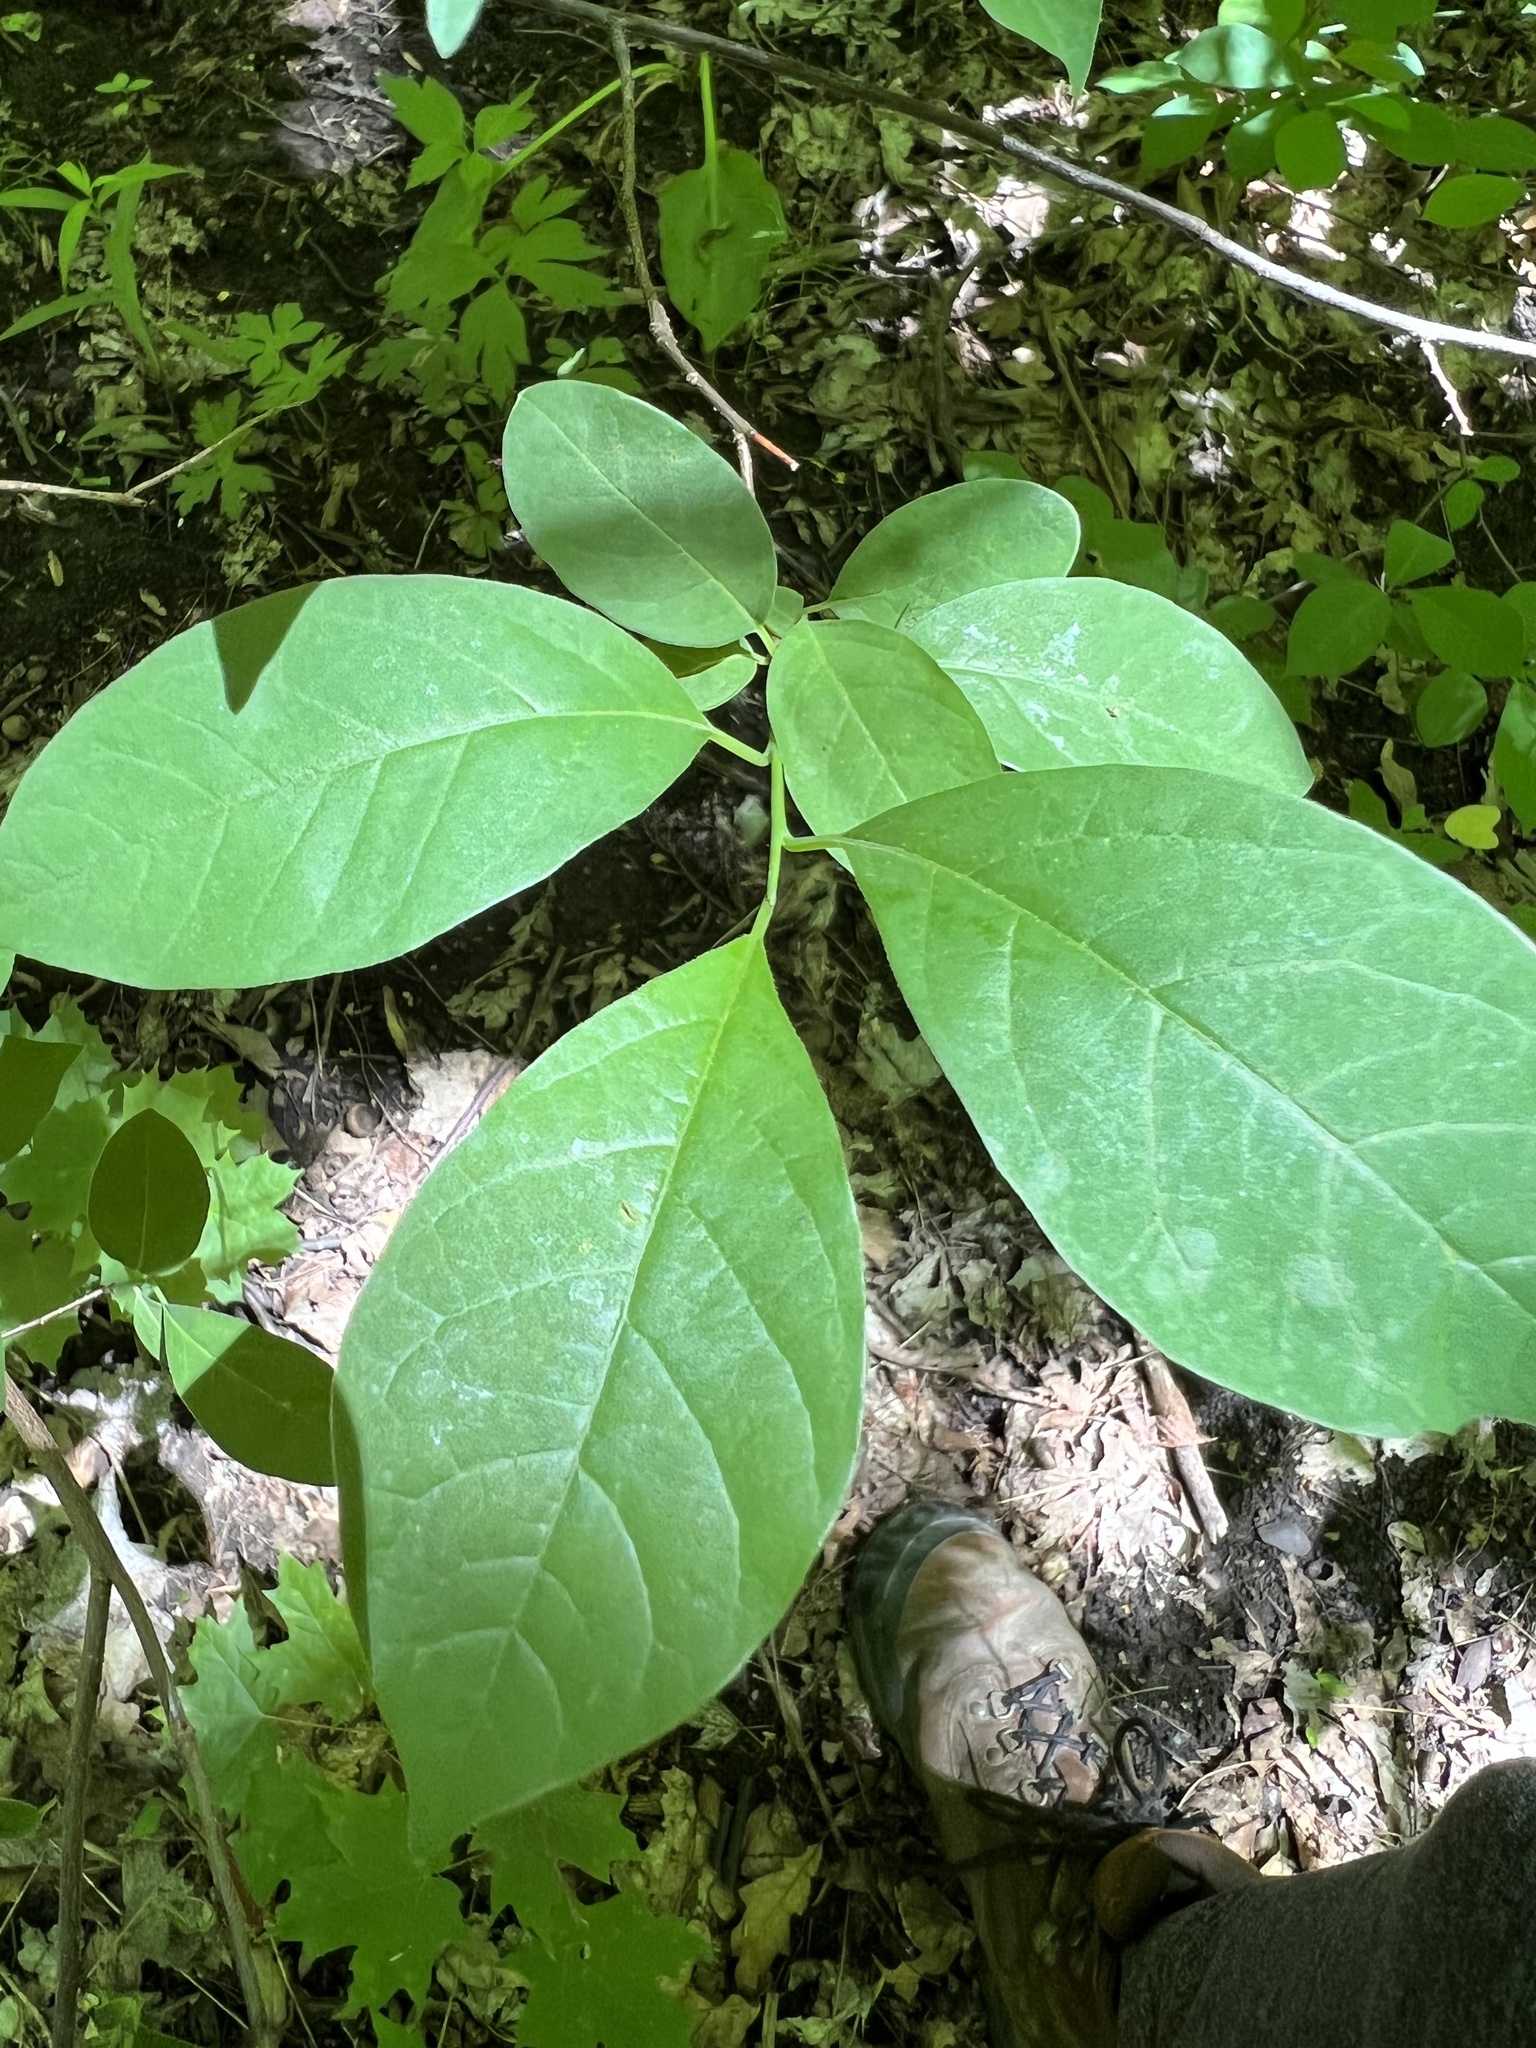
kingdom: Plantae
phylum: Tracheophyta
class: Magnoliopsida
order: Laurales
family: Lauraceae
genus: Lindera
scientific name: Lindera benzoin
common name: Spicebush
